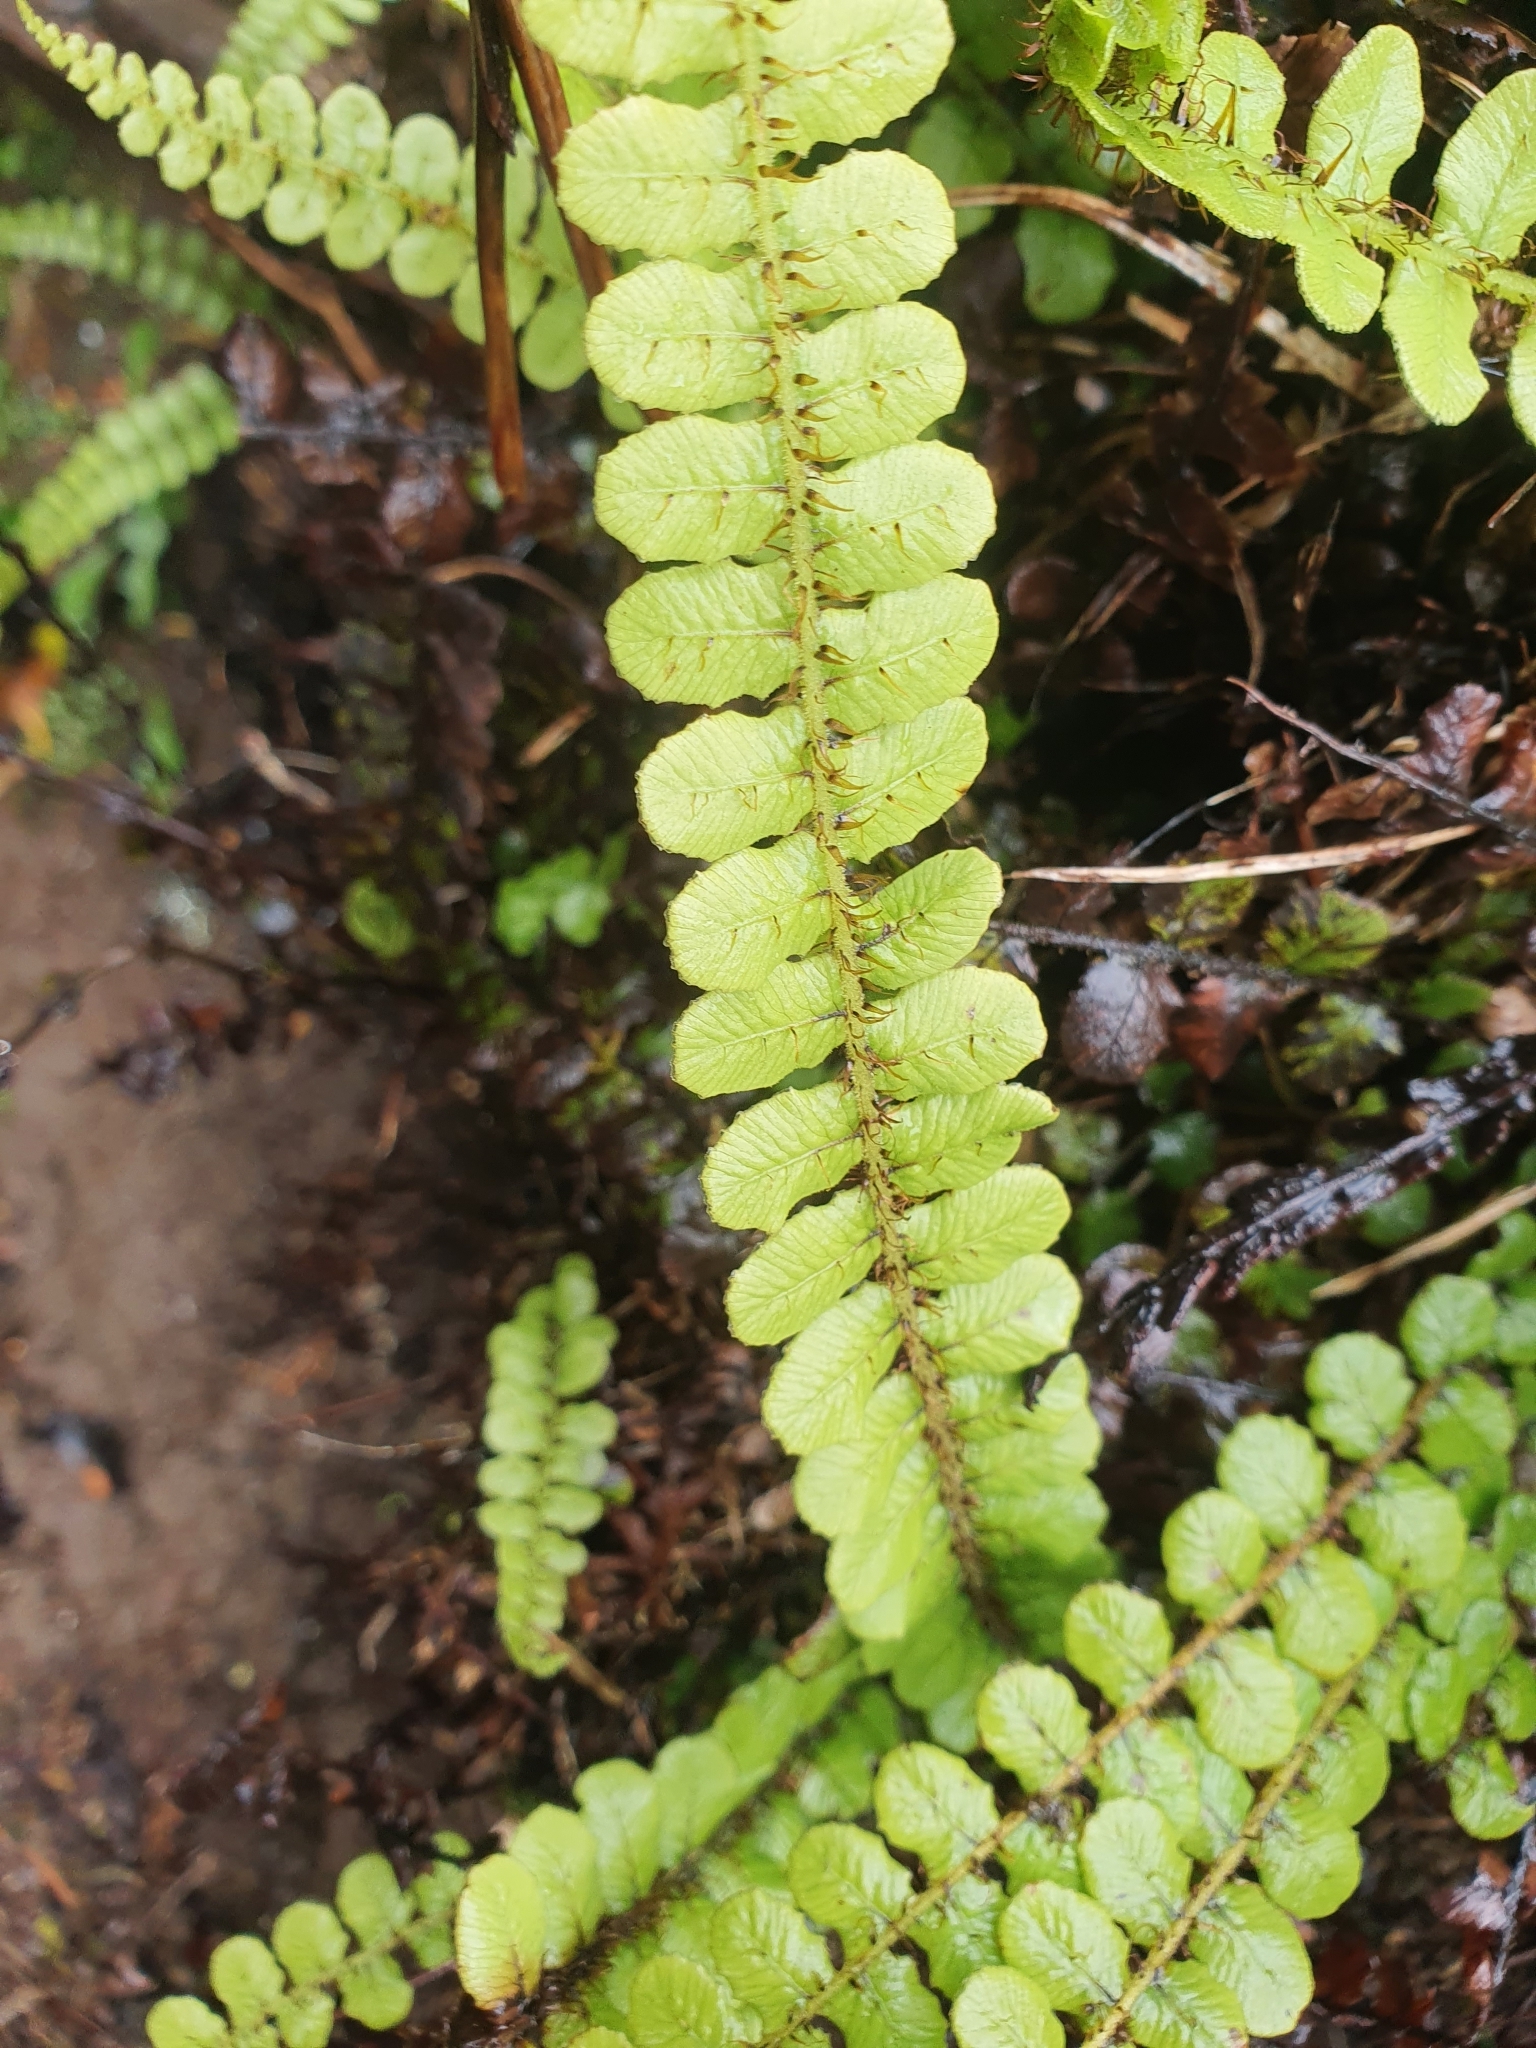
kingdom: Plantae
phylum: Tracheophyta
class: Polypodiopsida
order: Polypodiales
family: Blechnaceae
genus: Cranfillia
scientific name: Cranfillia fluviatilis
